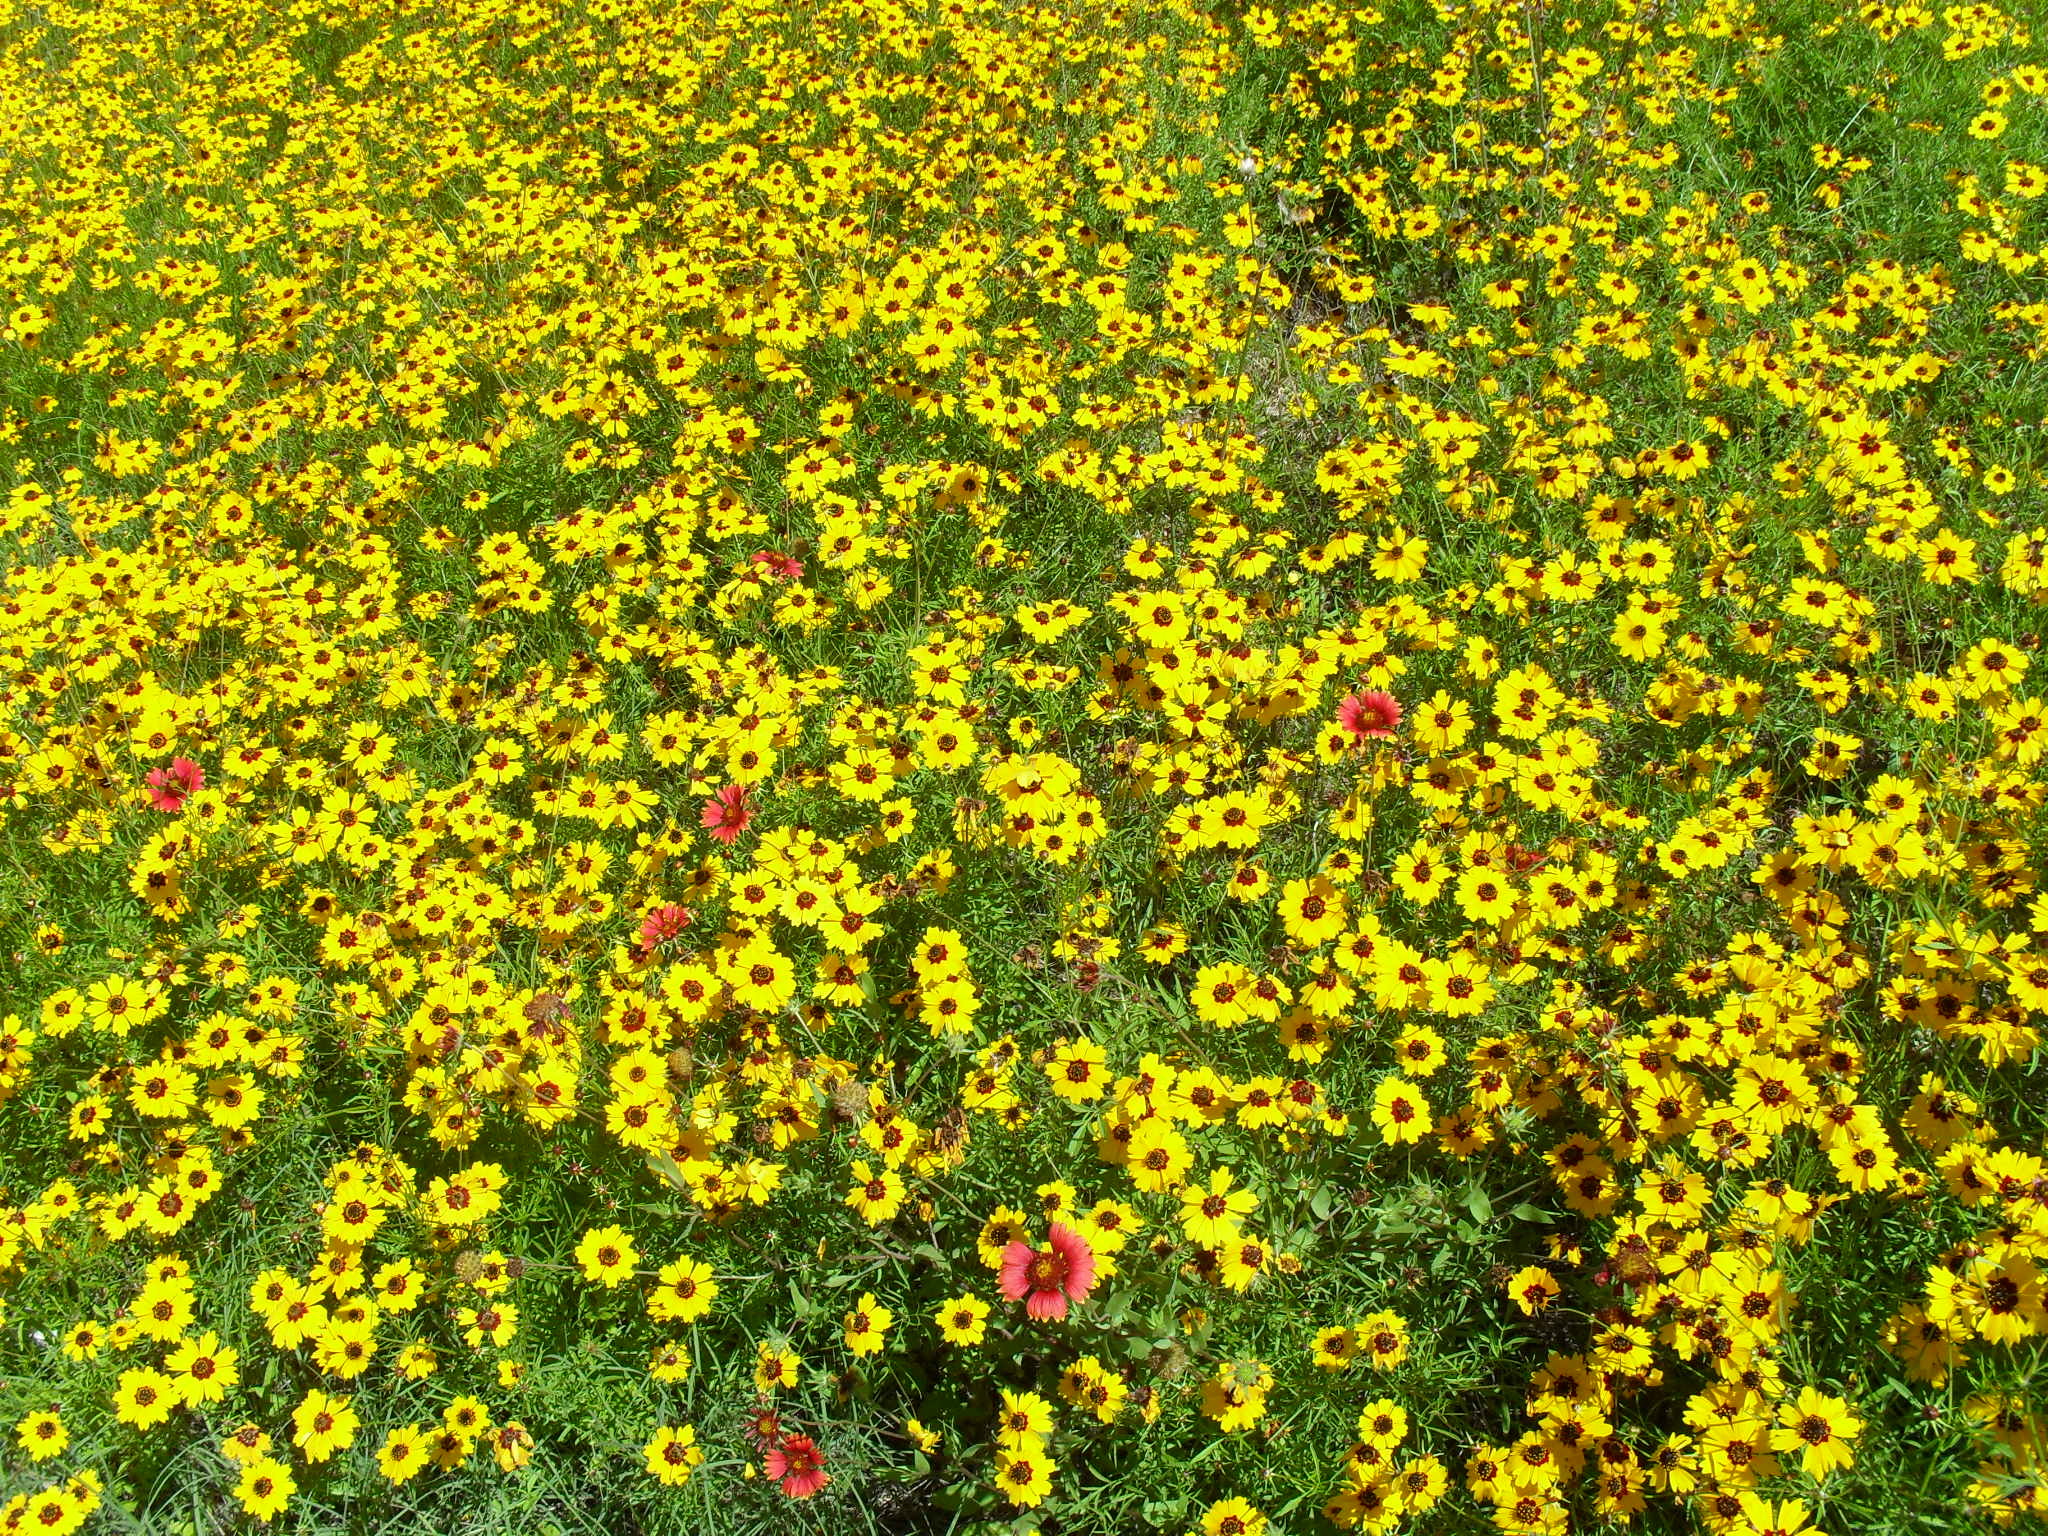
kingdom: Plantae
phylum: Tracheophyta
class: Magnoliopsida
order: Asterales
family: Asteraceae
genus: Rudbeckia
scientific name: Rudbeckia hirta
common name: Black-eyed-susan
